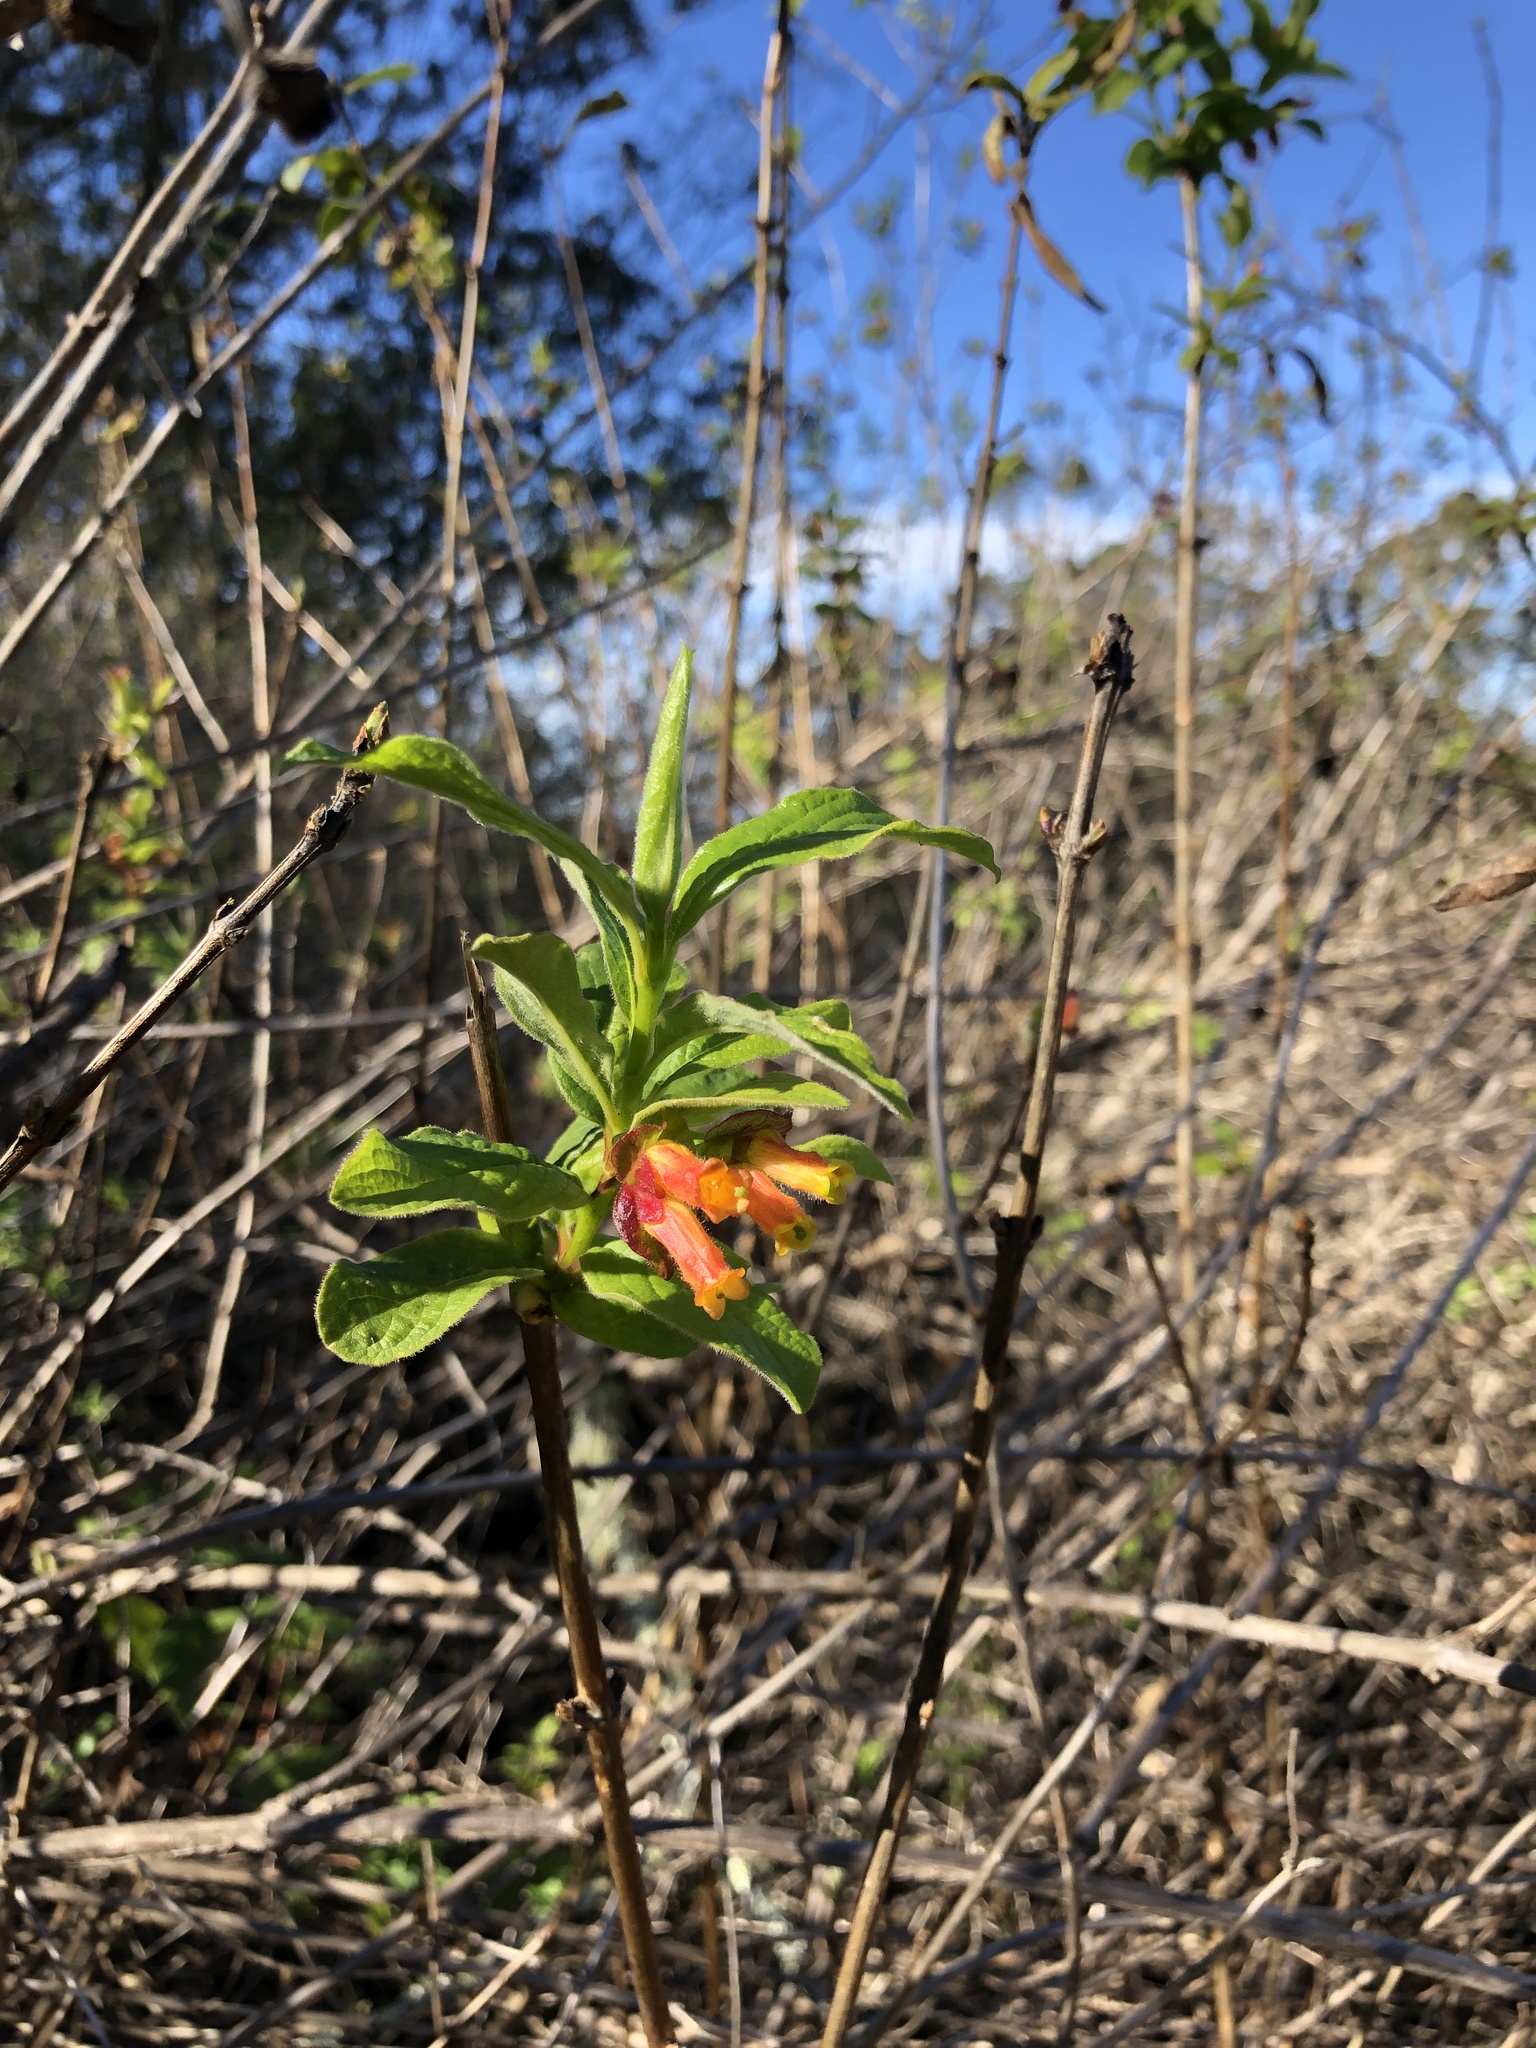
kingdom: Plantae
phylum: Tracheophyta
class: Magnoliopsida
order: Dipsacales
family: Caprifoliaceae
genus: Lonicera
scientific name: Lonicera involucrata
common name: Californian honeysuckle
